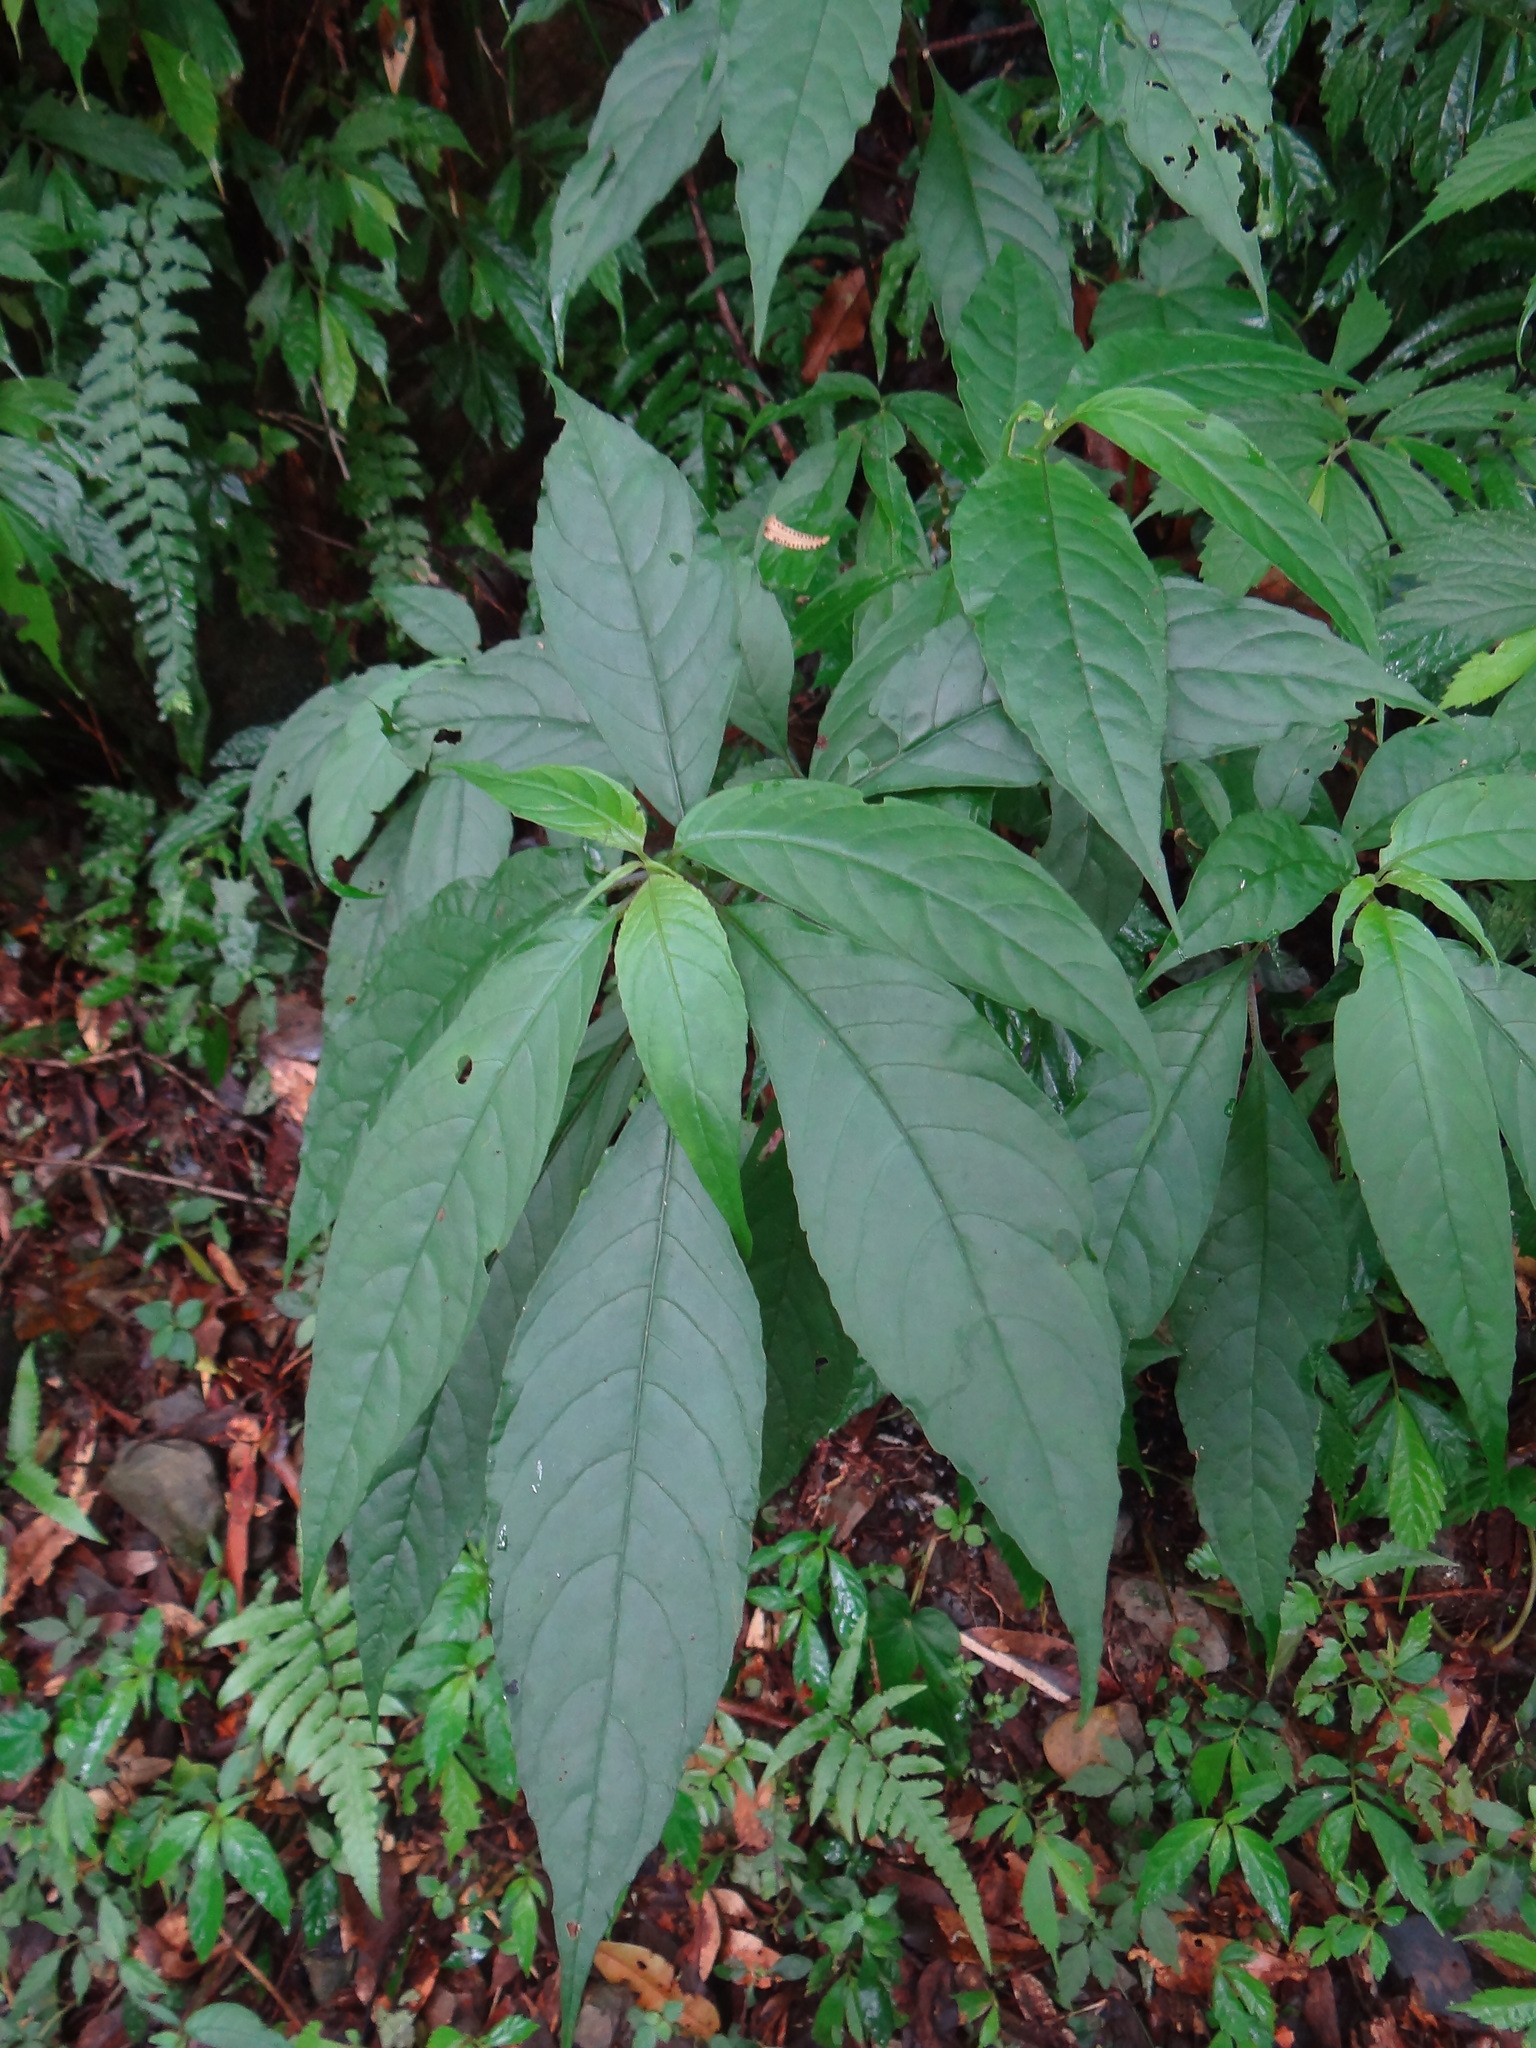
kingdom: Plantae
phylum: Tracheophyta
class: Magnoliopsida
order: Lamiales
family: Gesneriaceae
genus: Hemiboea
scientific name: Hemiboea bicornuta
